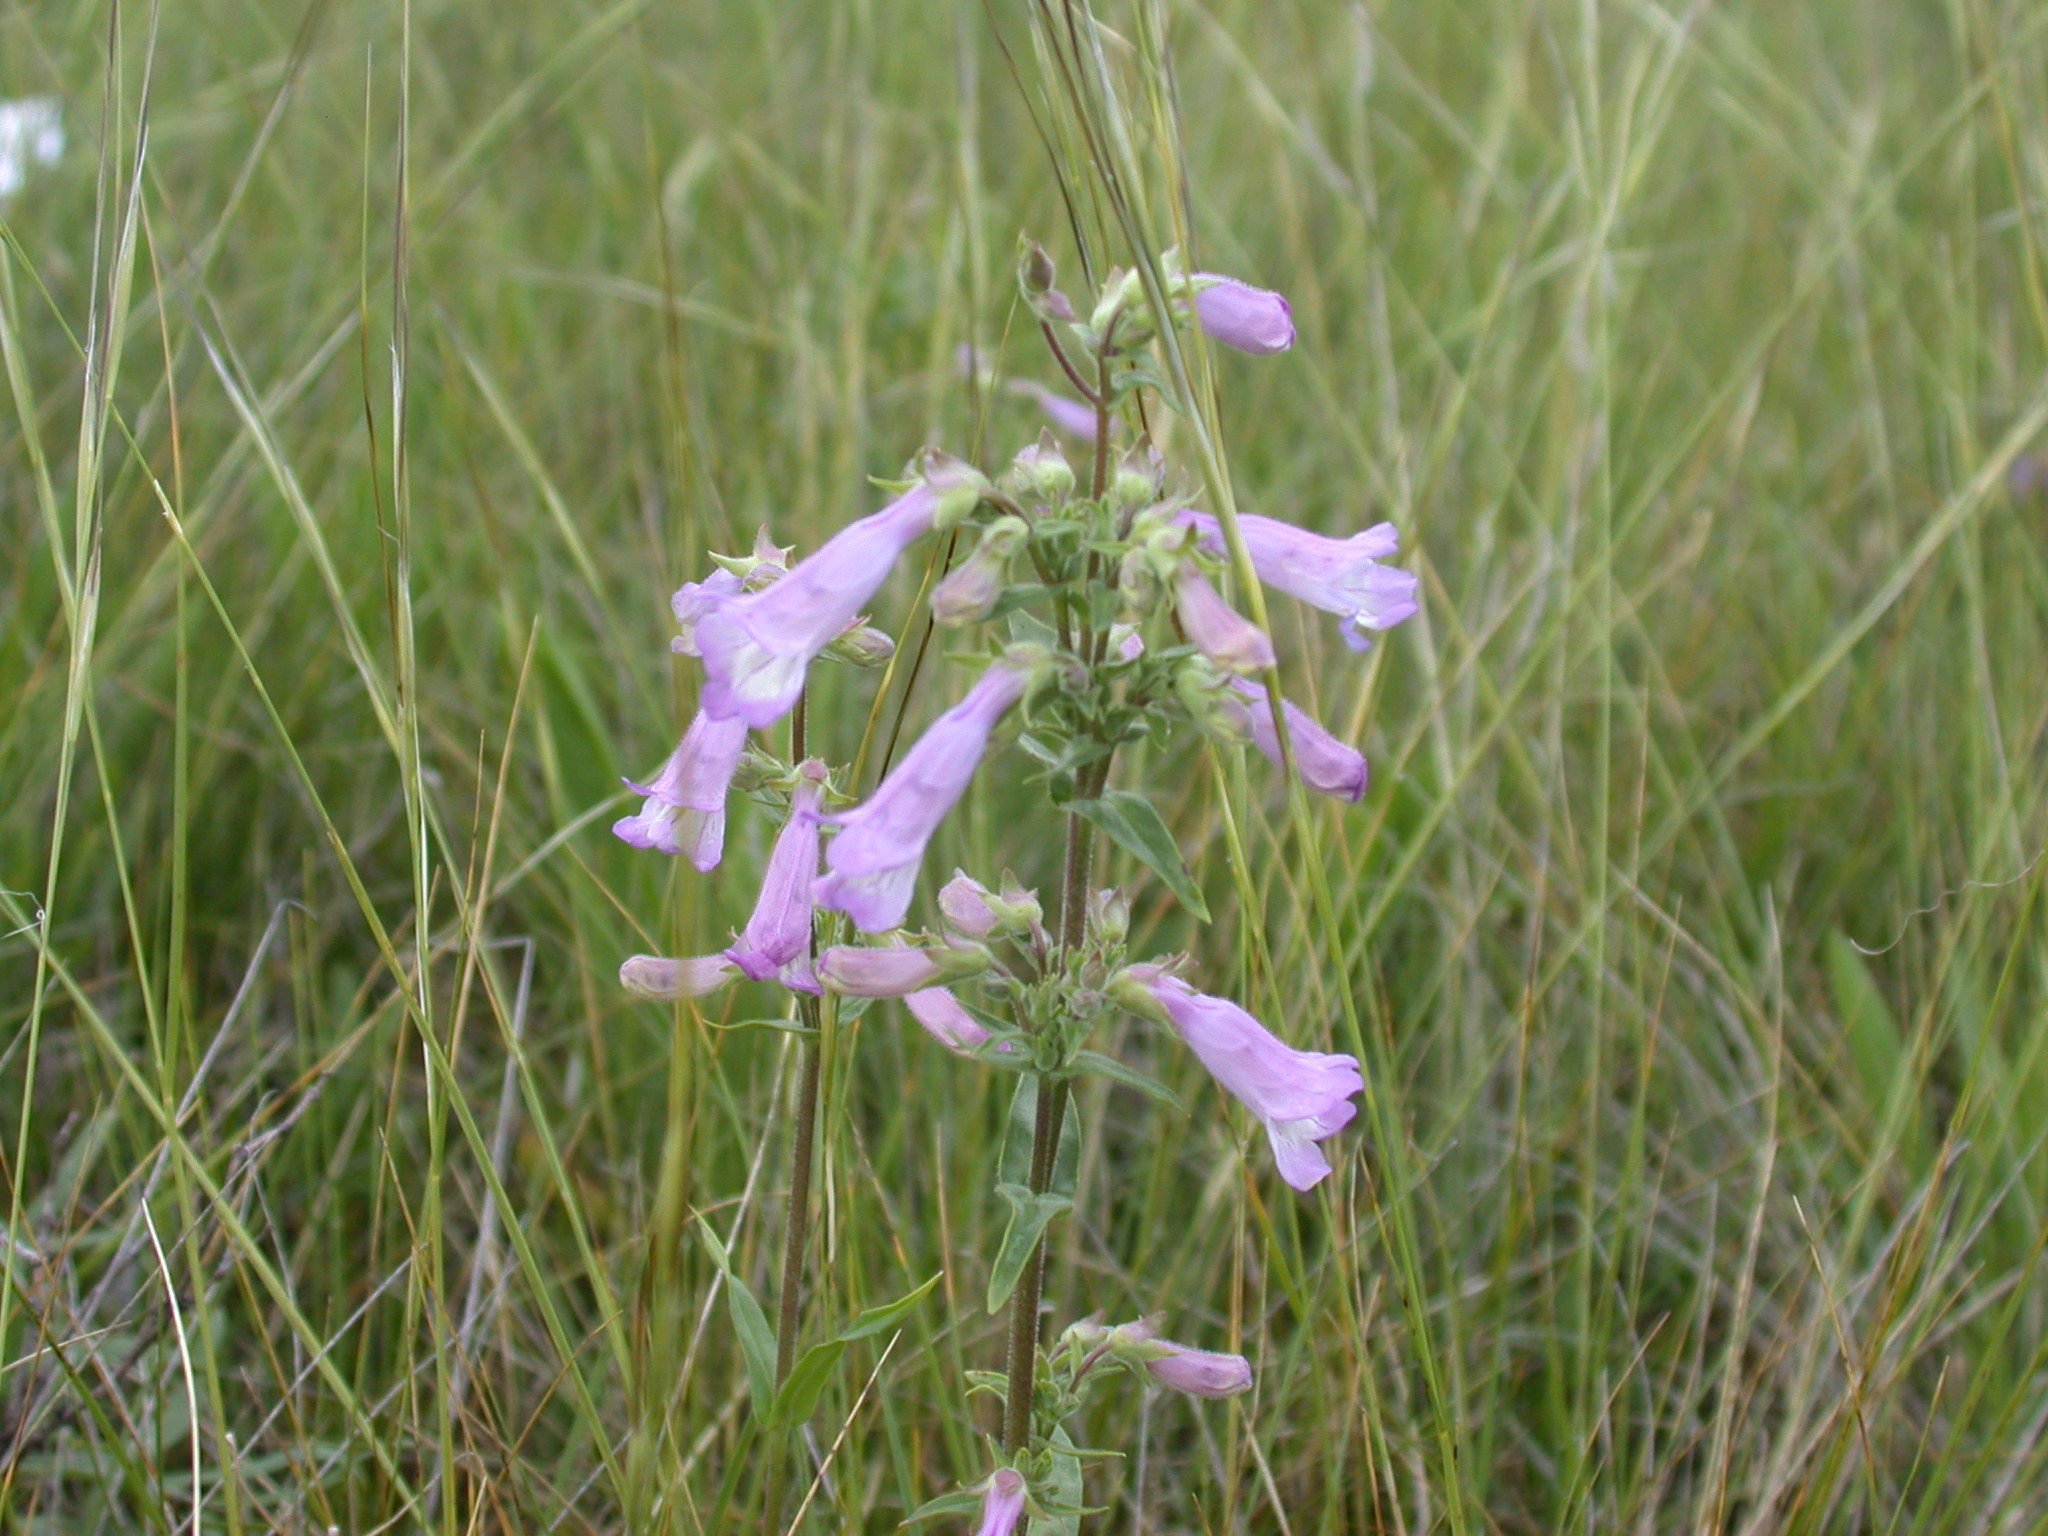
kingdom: Plantae
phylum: Tracheophyta
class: Magnoliopsida
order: Lamiales
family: Plantaginaceae
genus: Penstemon
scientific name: Penstemon gracilis
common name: Slender beardtongue
